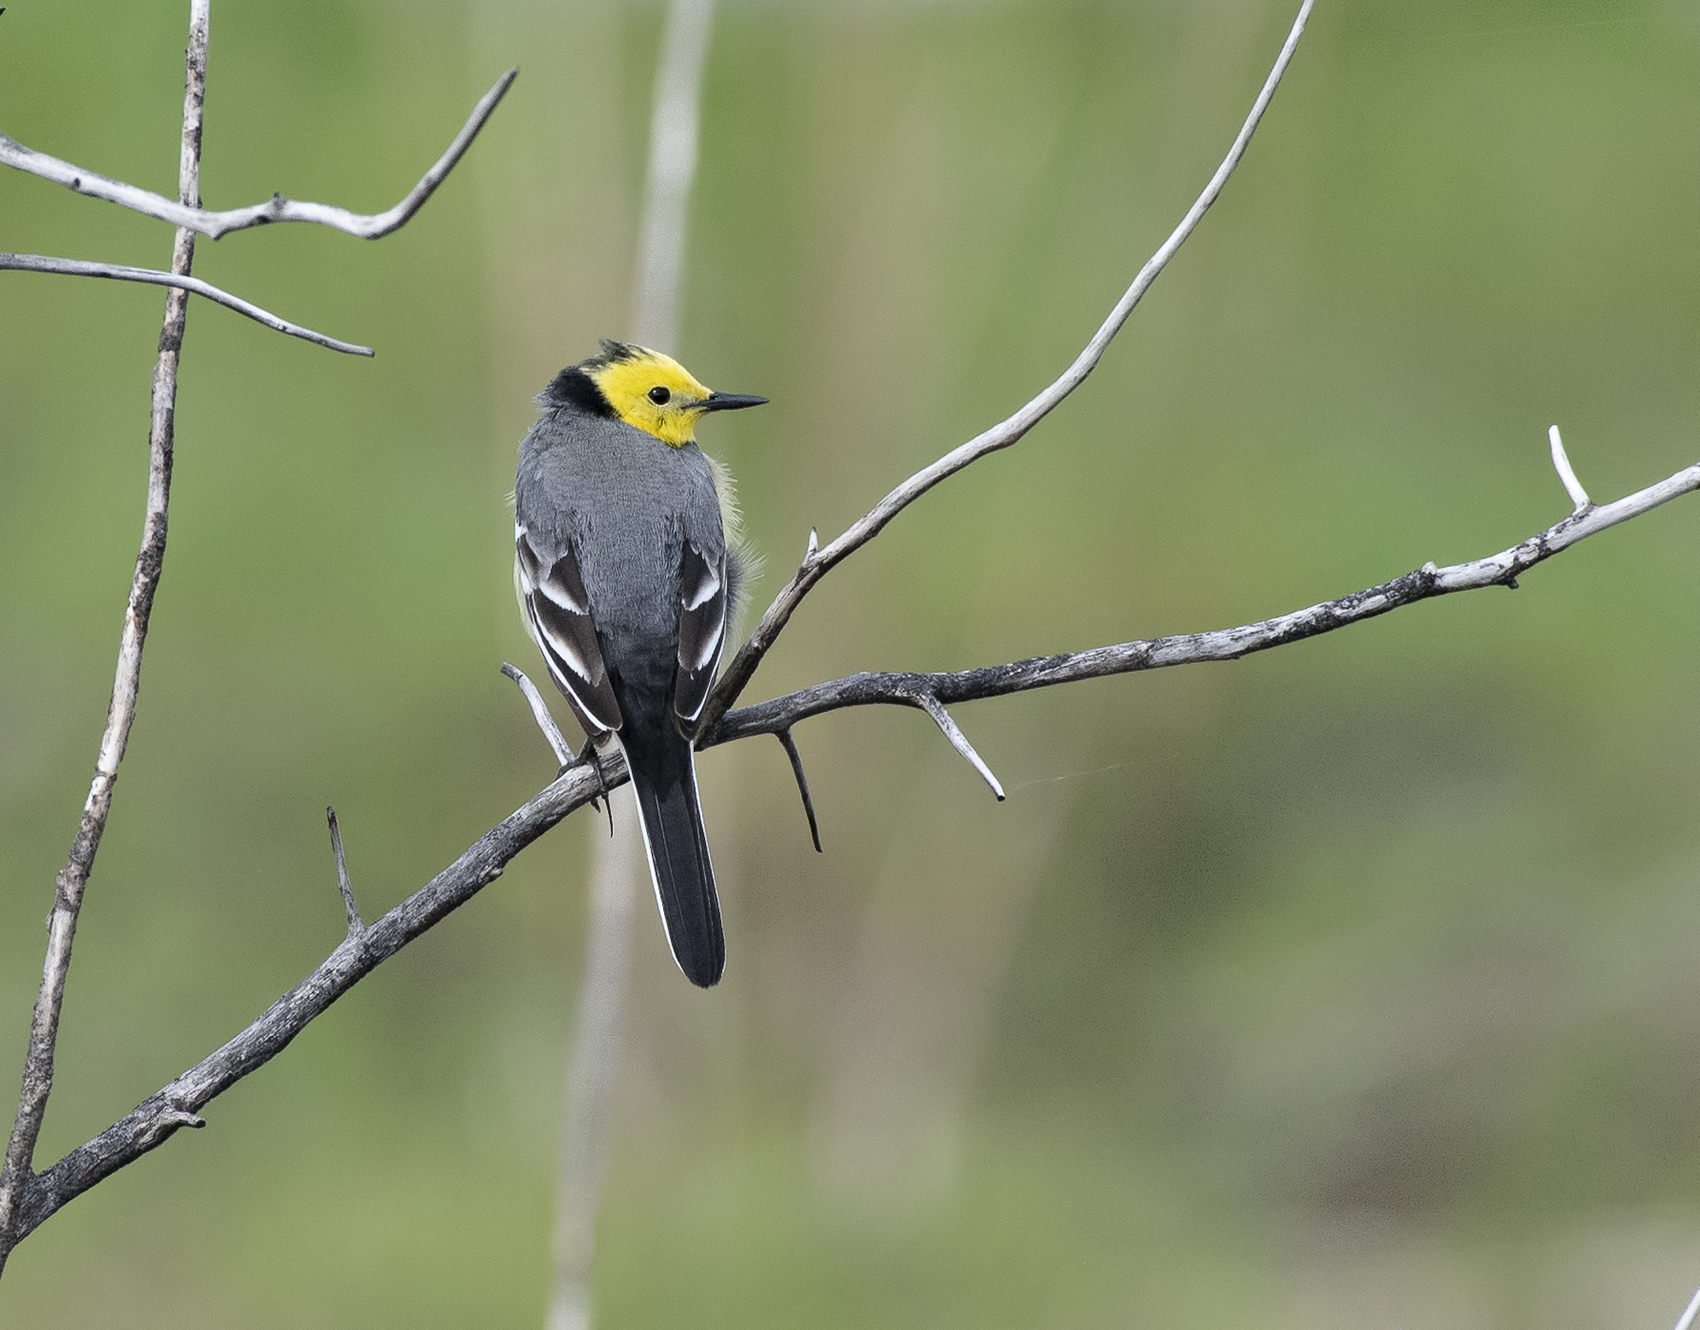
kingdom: Animalia
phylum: Chordata
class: Aves
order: Passeriformes
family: Motacillidae
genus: Motacilla
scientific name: Motacilla citreola
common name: Citrine wagtail
